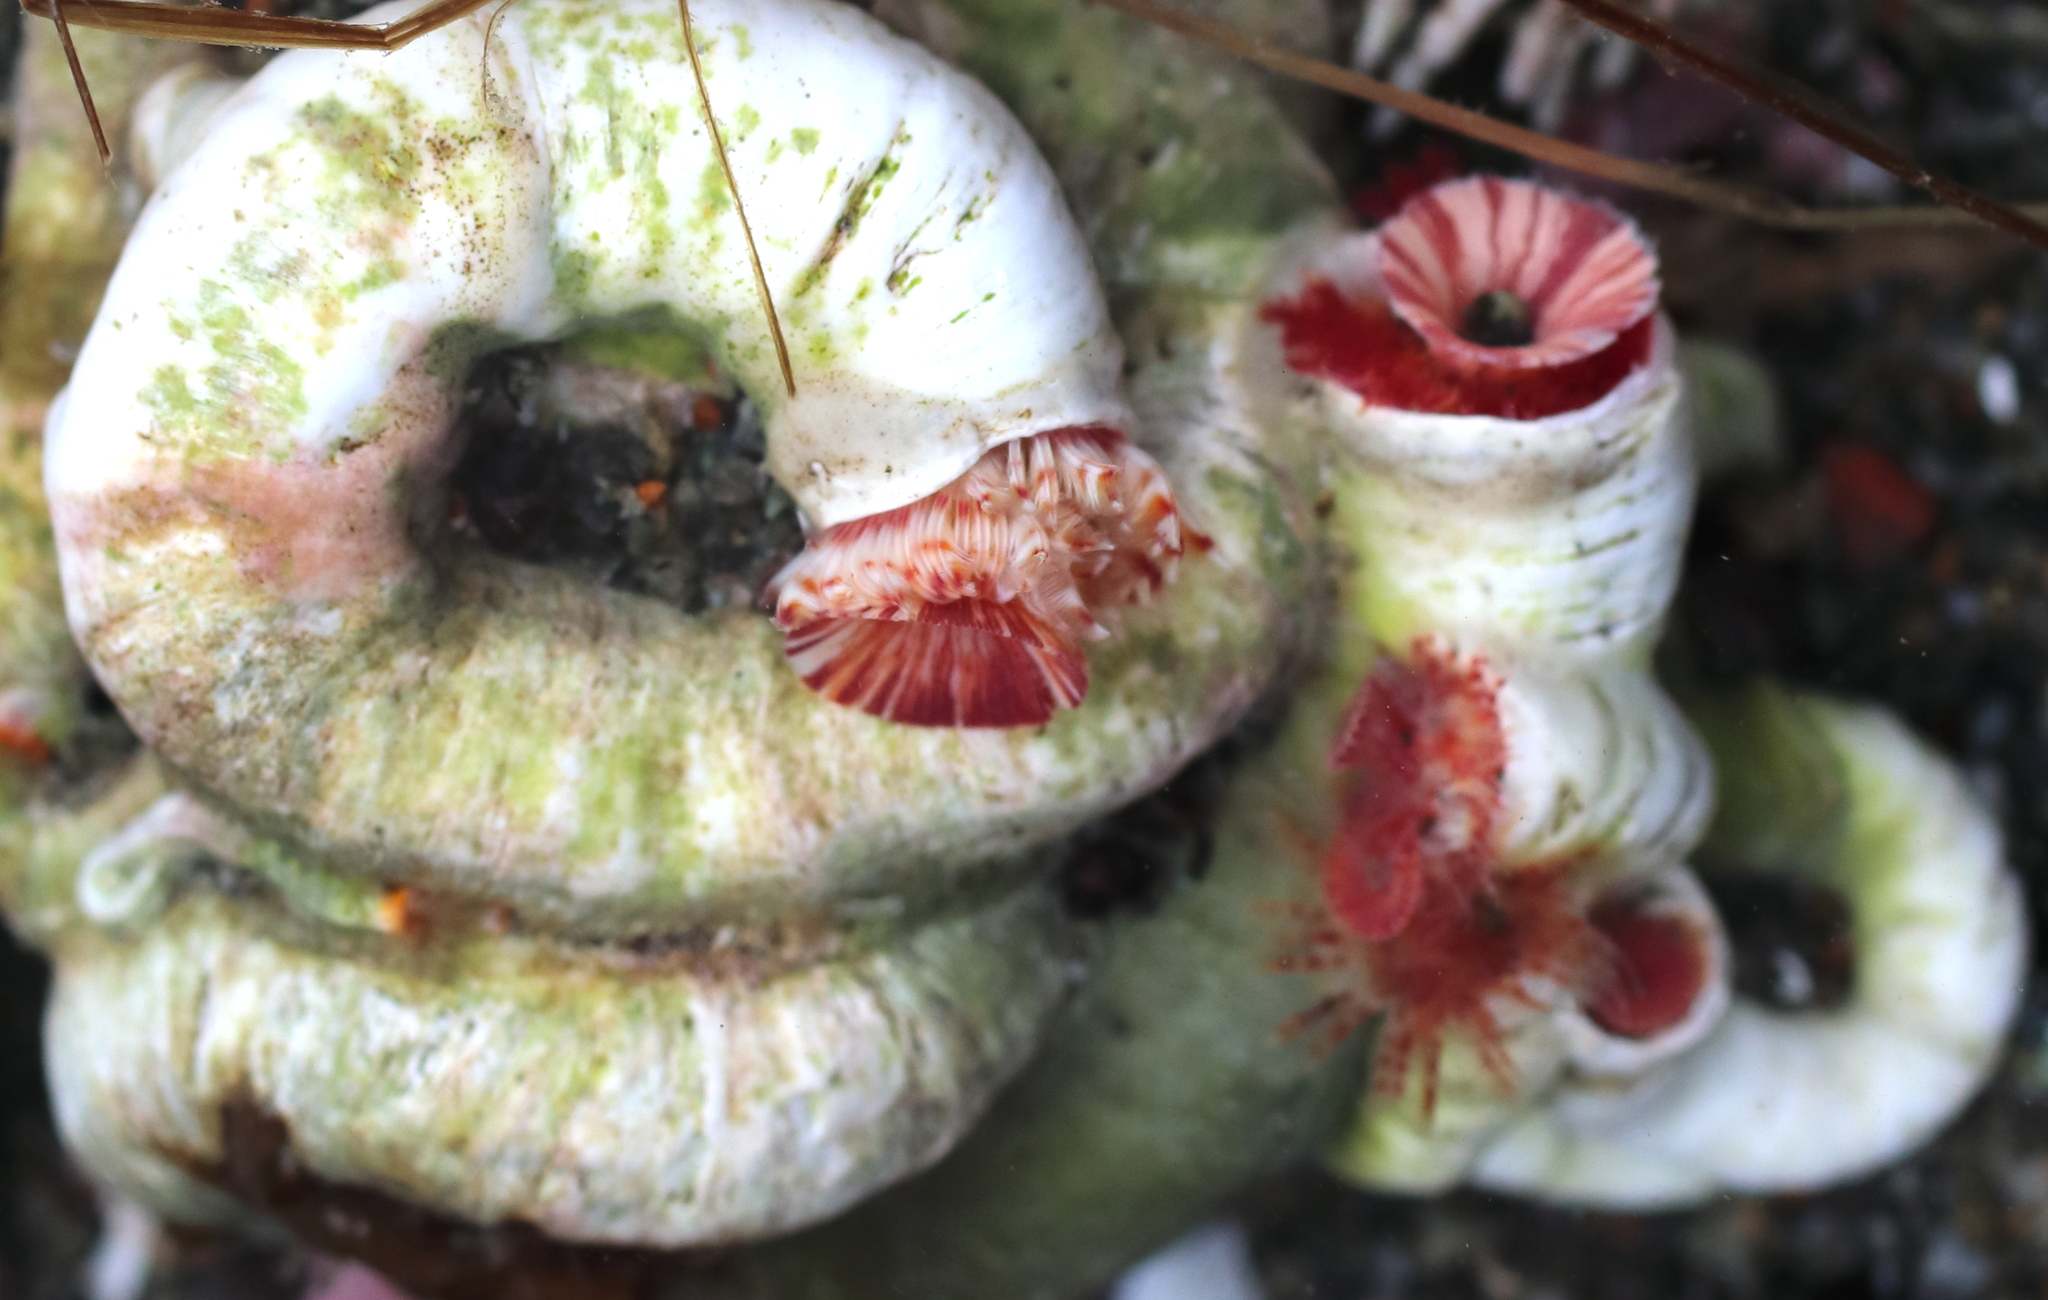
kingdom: Animalia
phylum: Annelida
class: Polychaeta
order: Sabellida
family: Serpulidae
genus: Serpula
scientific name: Serpula columbiana
